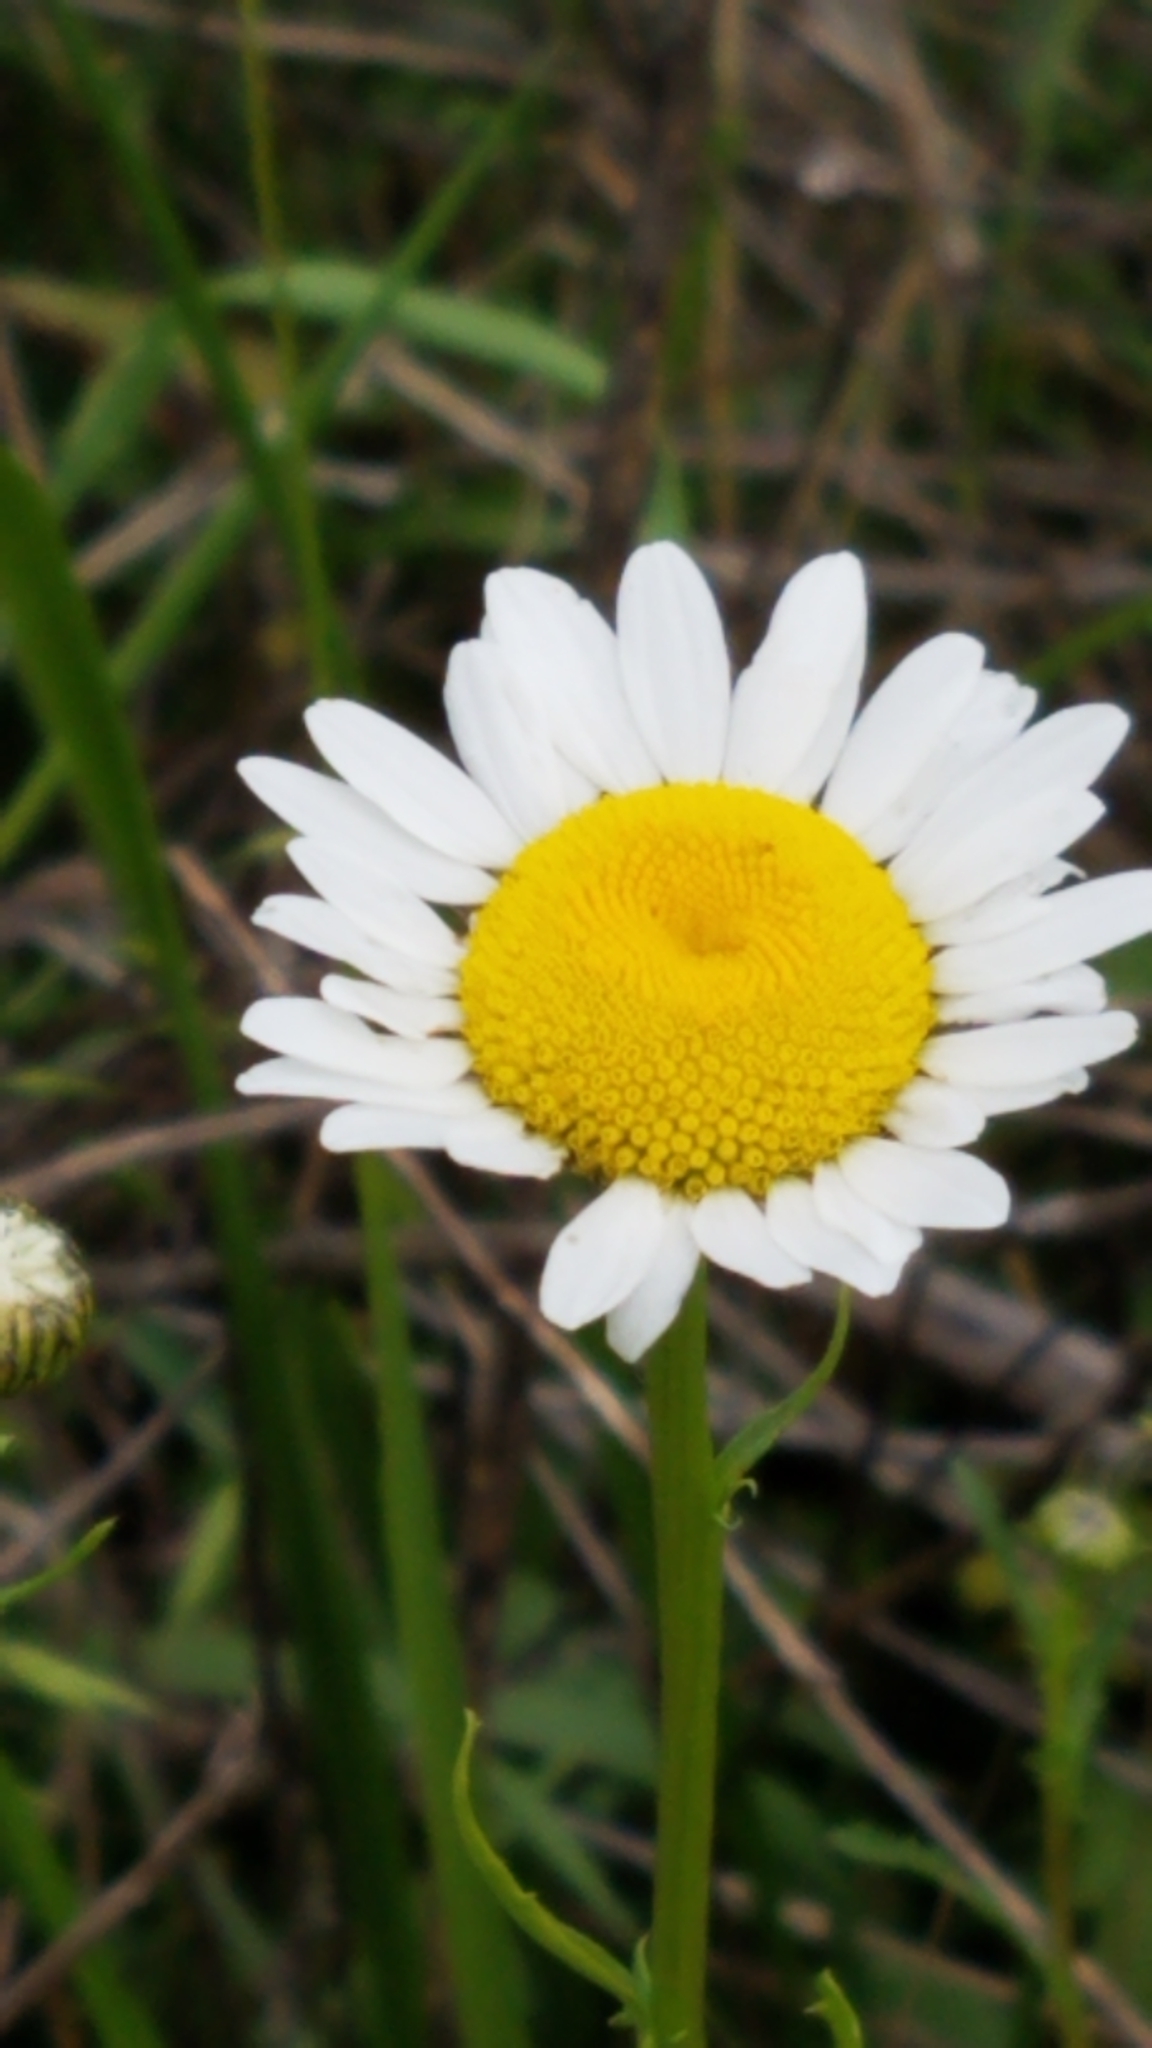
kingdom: Plantae
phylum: Tracheophyta
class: Magnoliopsida
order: Asterales
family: Asteraceae
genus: Leucanthemum
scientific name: Leucanthemum vulgare
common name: Oxeye daisy
